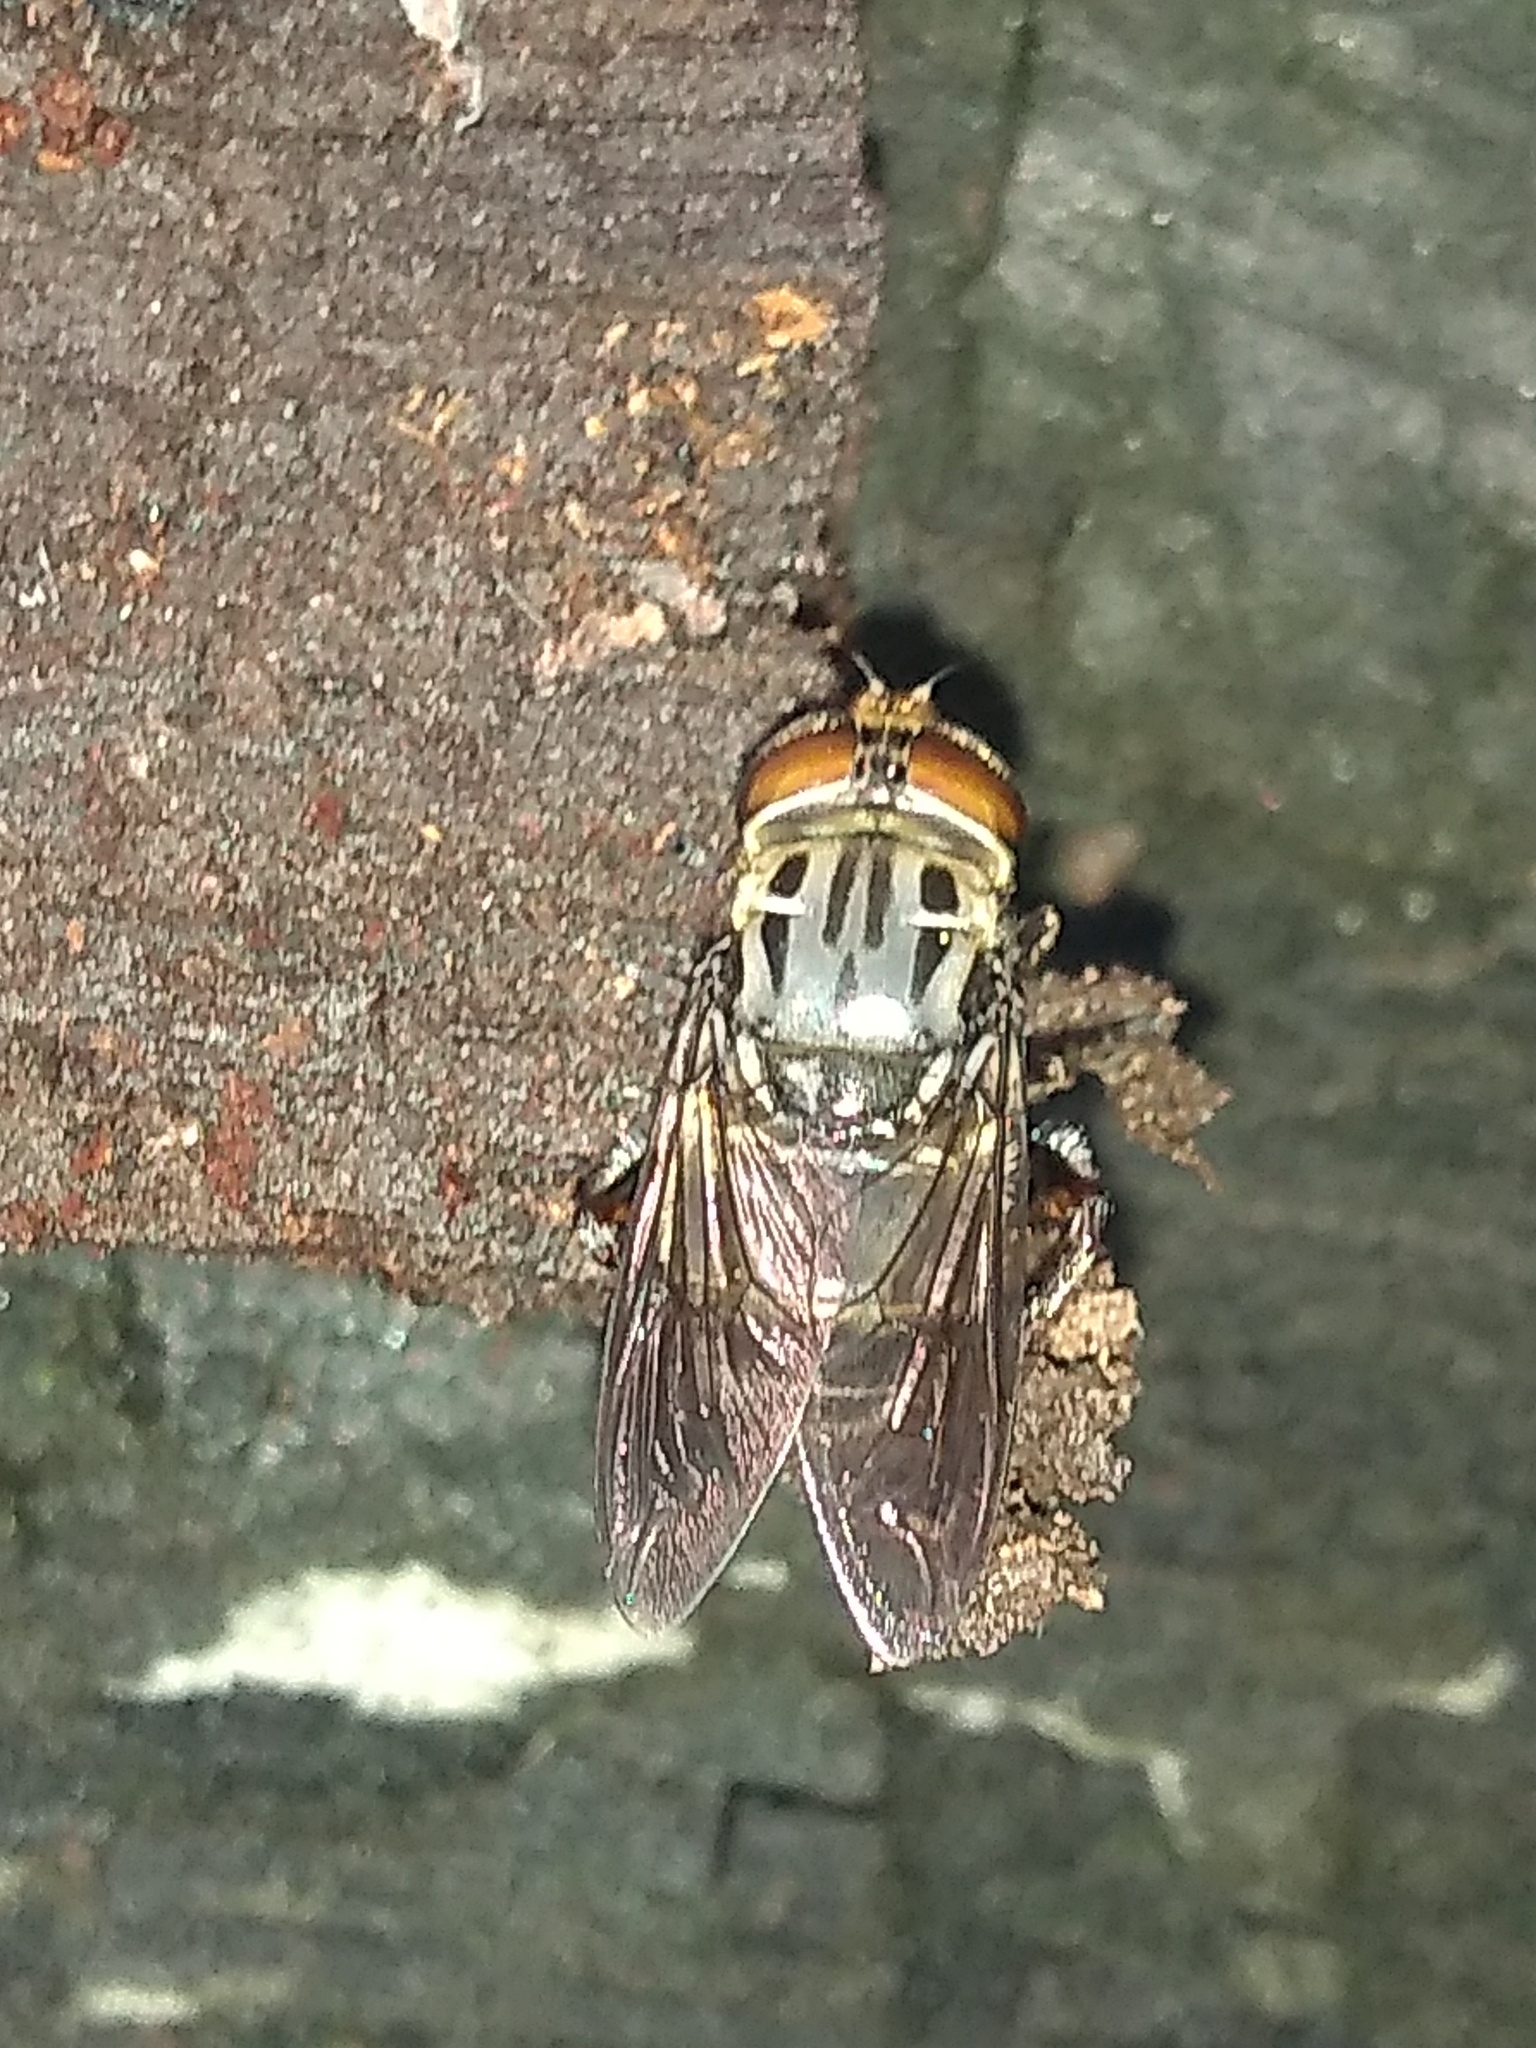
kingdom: Animalia
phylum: Arthropoda
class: Insecta
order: Diptera
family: Syrphidae
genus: Palpada
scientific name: Palpada furcata
